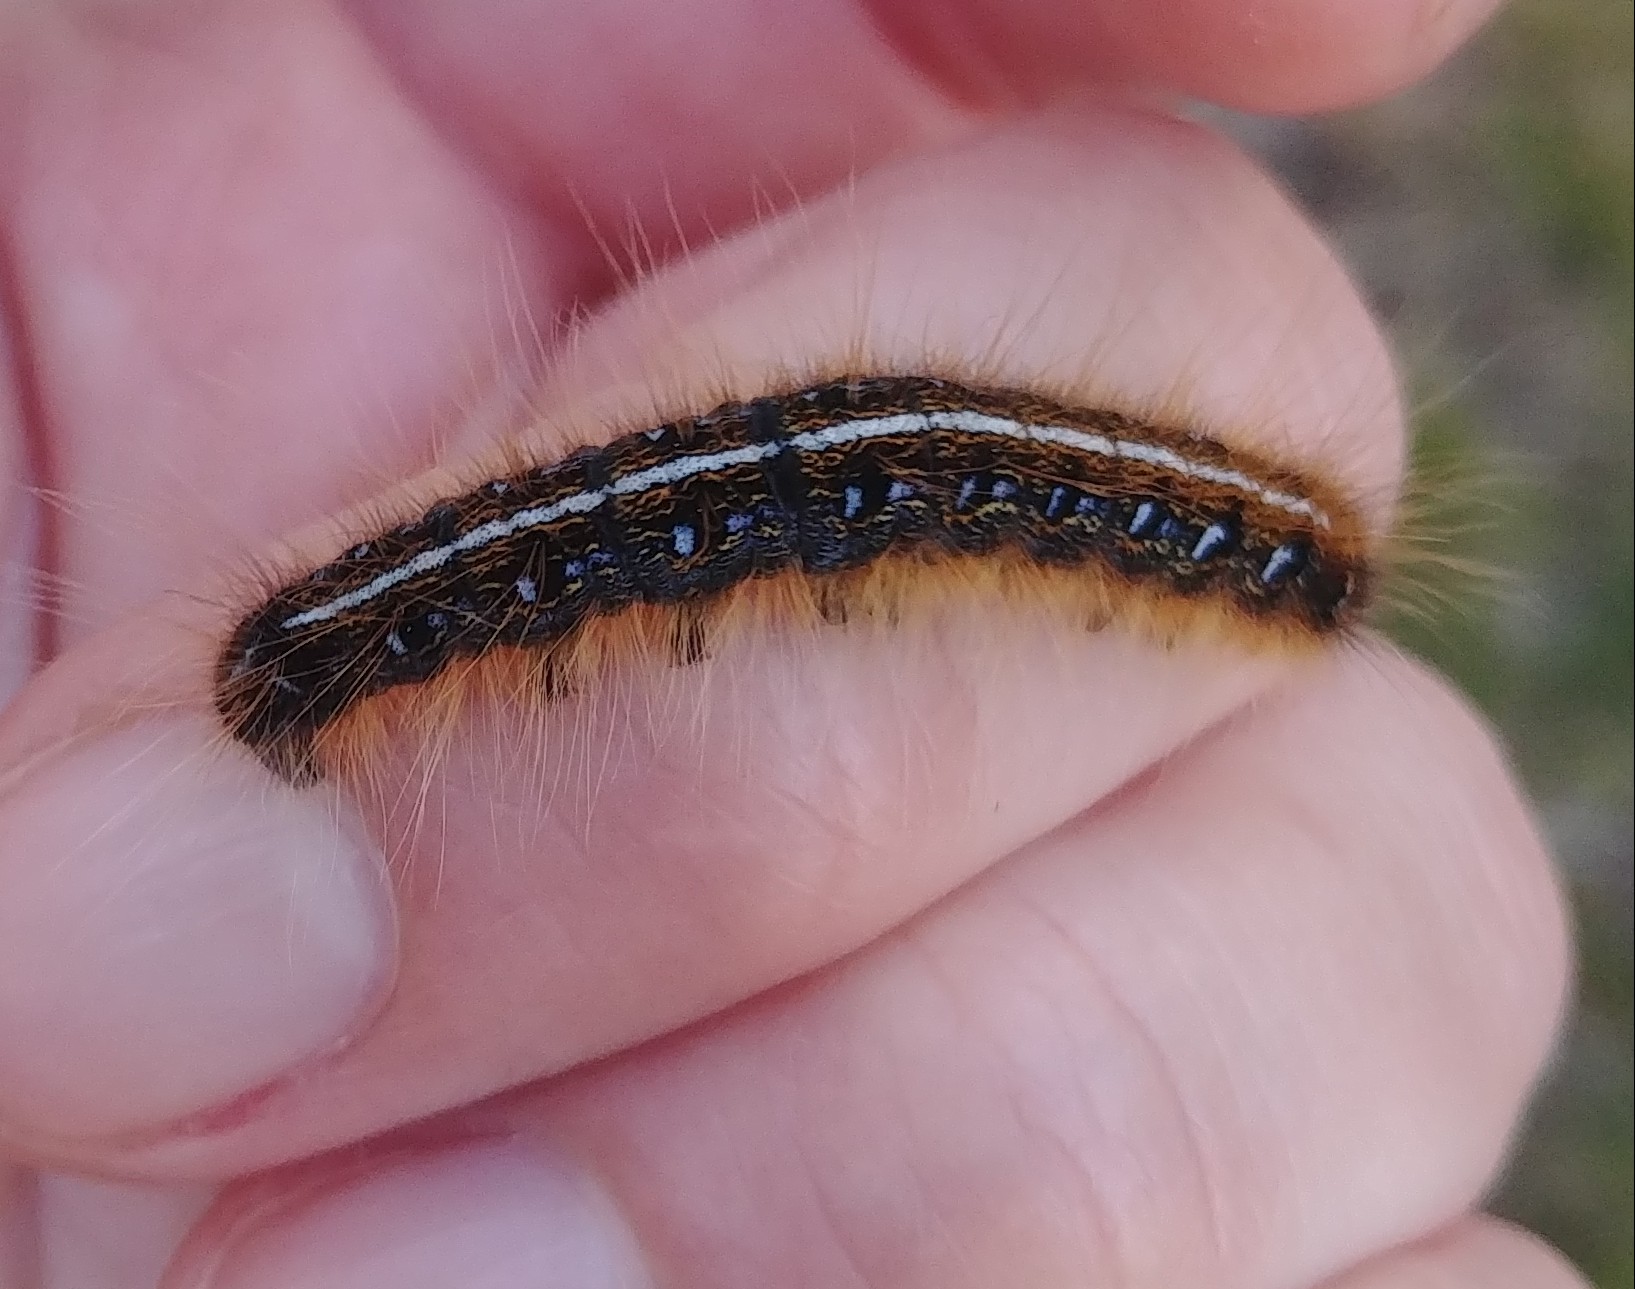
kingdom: Animalia
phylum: Arthropoda
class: Insecta
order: Lepidoptera
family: Lasiocampidae
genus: Malacosoma
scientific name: Malacosoma americana
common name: Eastern tent caterpillar moth
